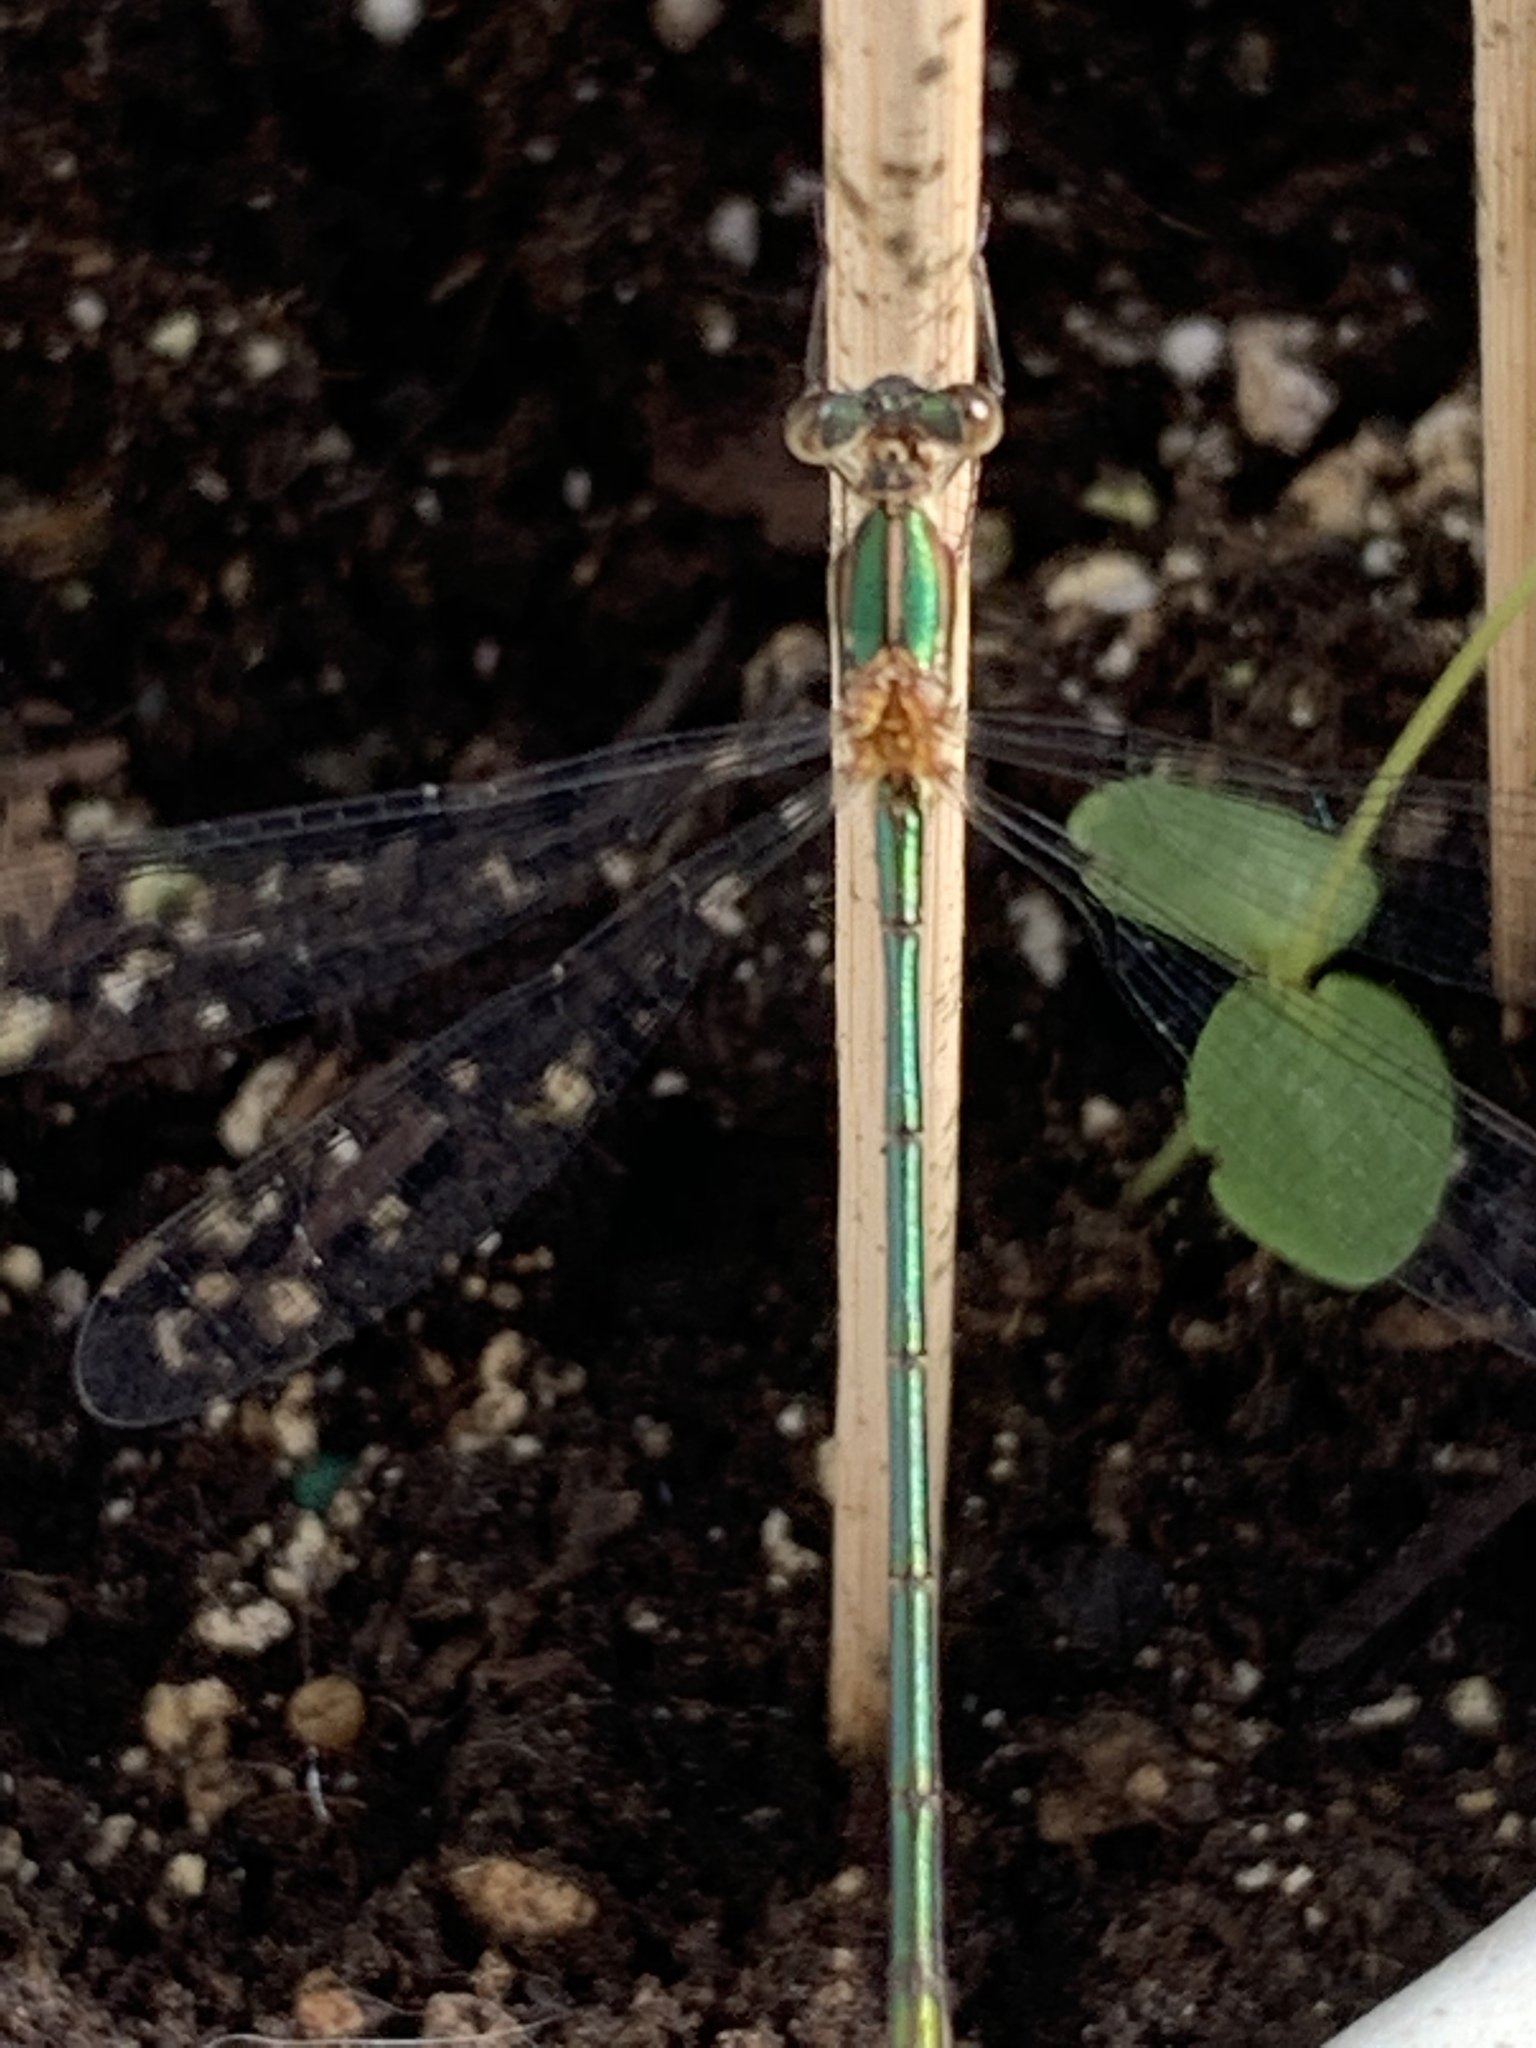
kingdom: Animalia
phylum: Arthropoda
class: Insecta
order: Odonata
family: Lestidae
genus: Lestes
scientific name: Lestes vigilax
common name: Swamp spreadwing
